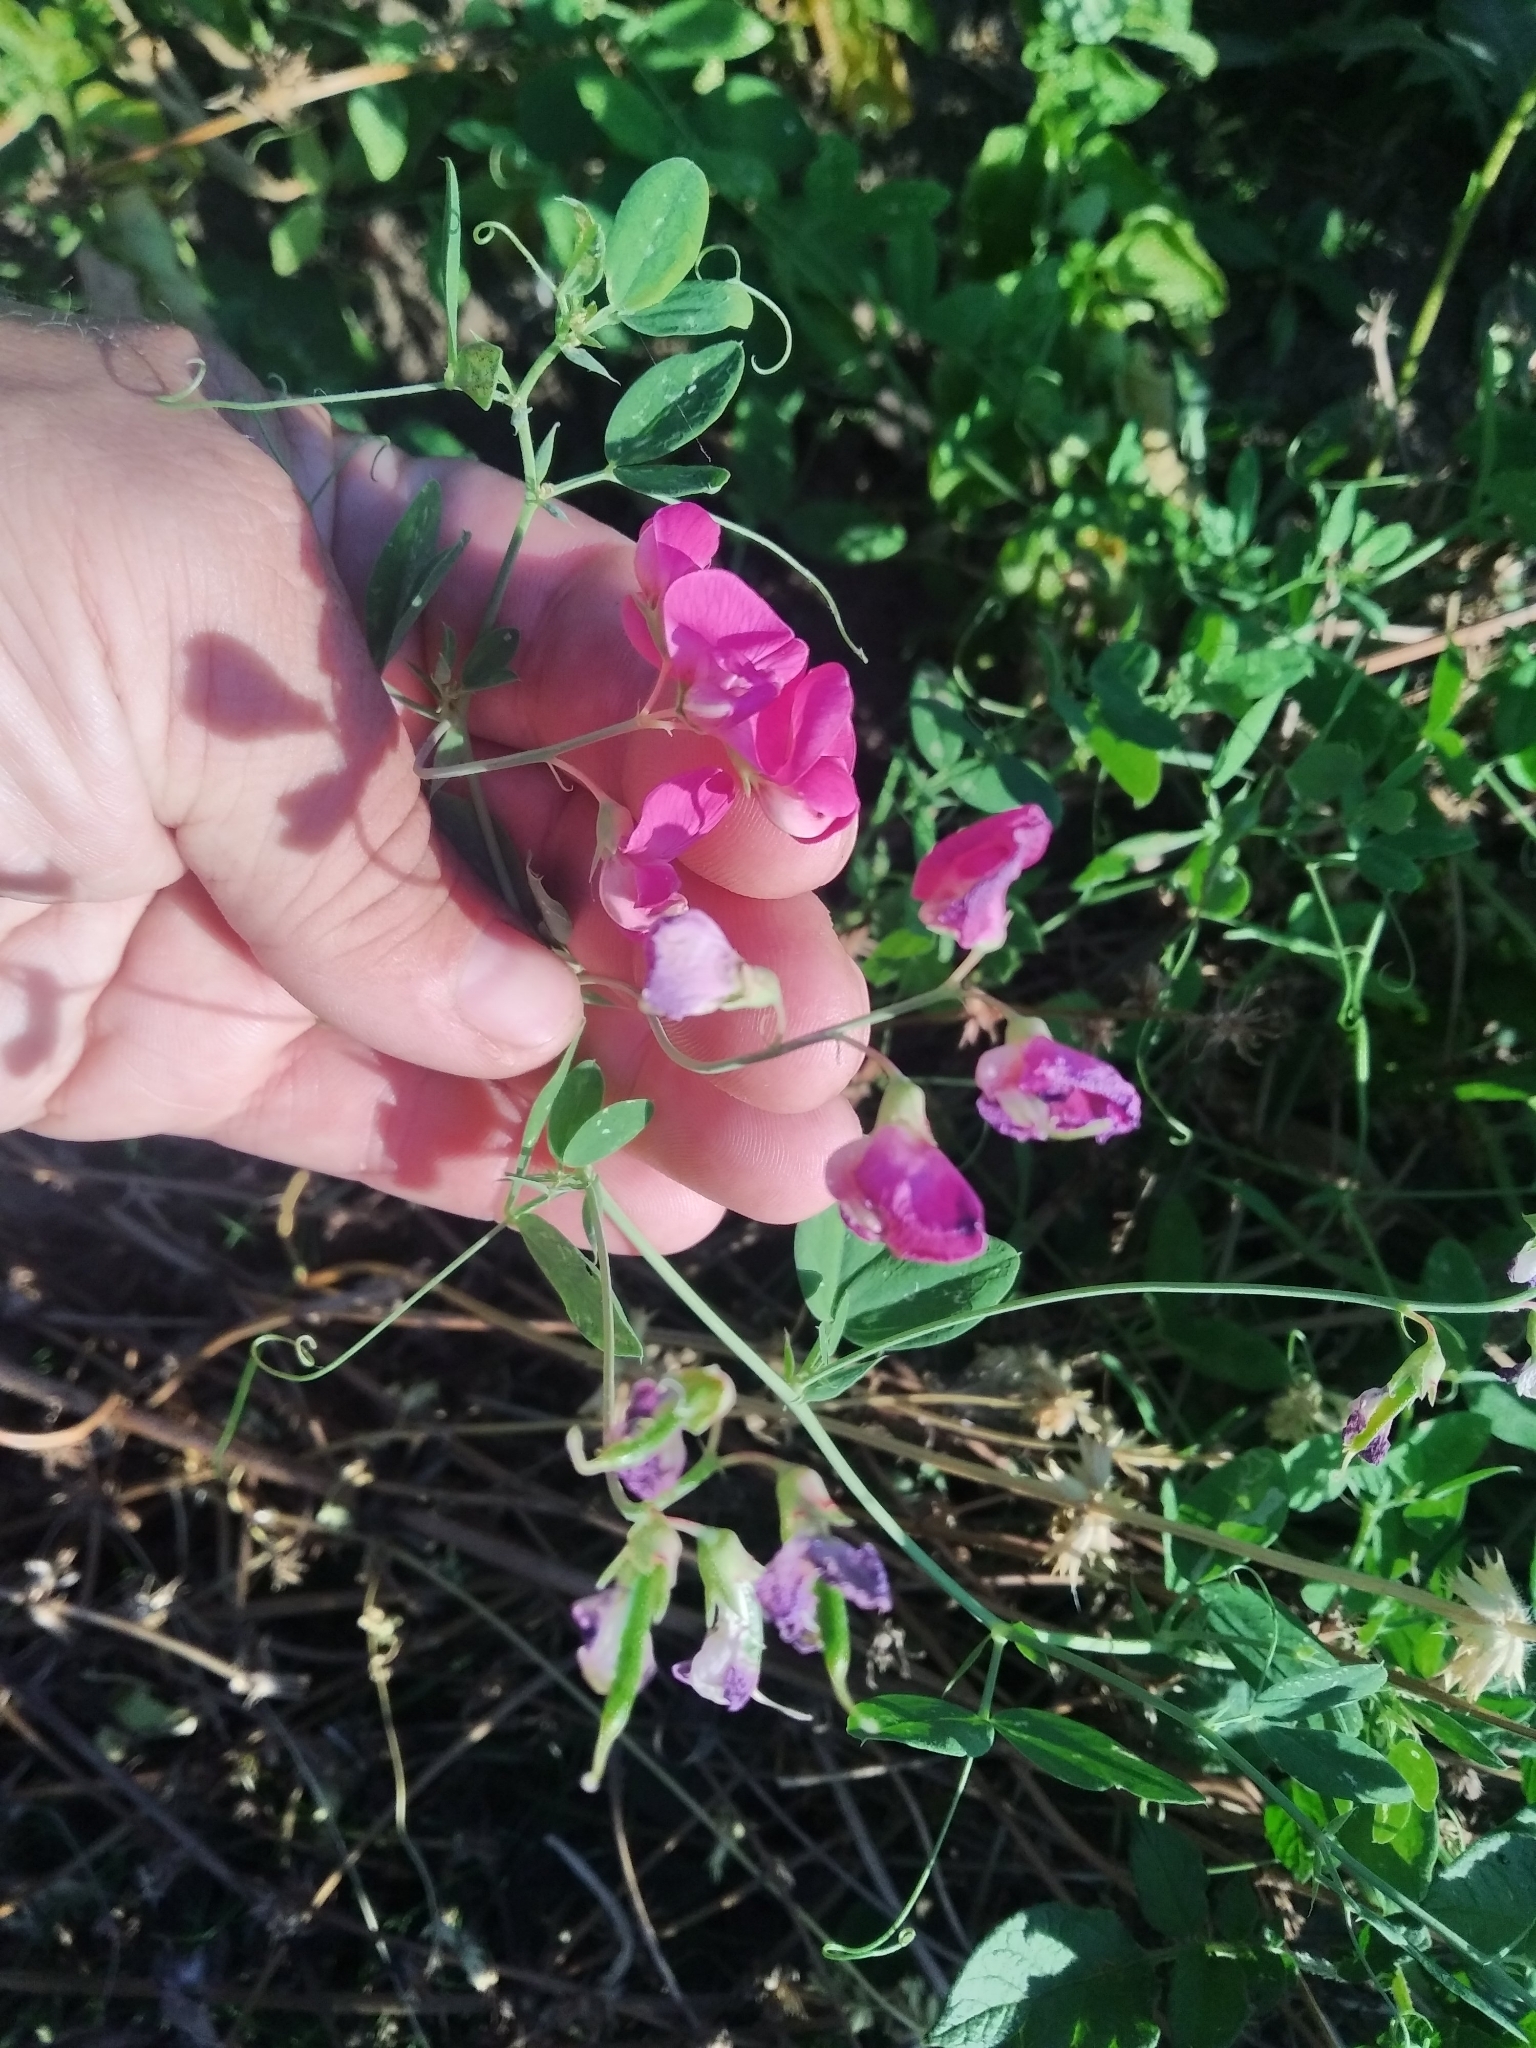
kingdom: Plantae
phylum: Tracheophyta
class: Magnoliopsida
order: Fabales
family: Fabaceae
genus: Lathyrus
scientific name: Lathyrus tuberosus
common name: Tuberous pea
